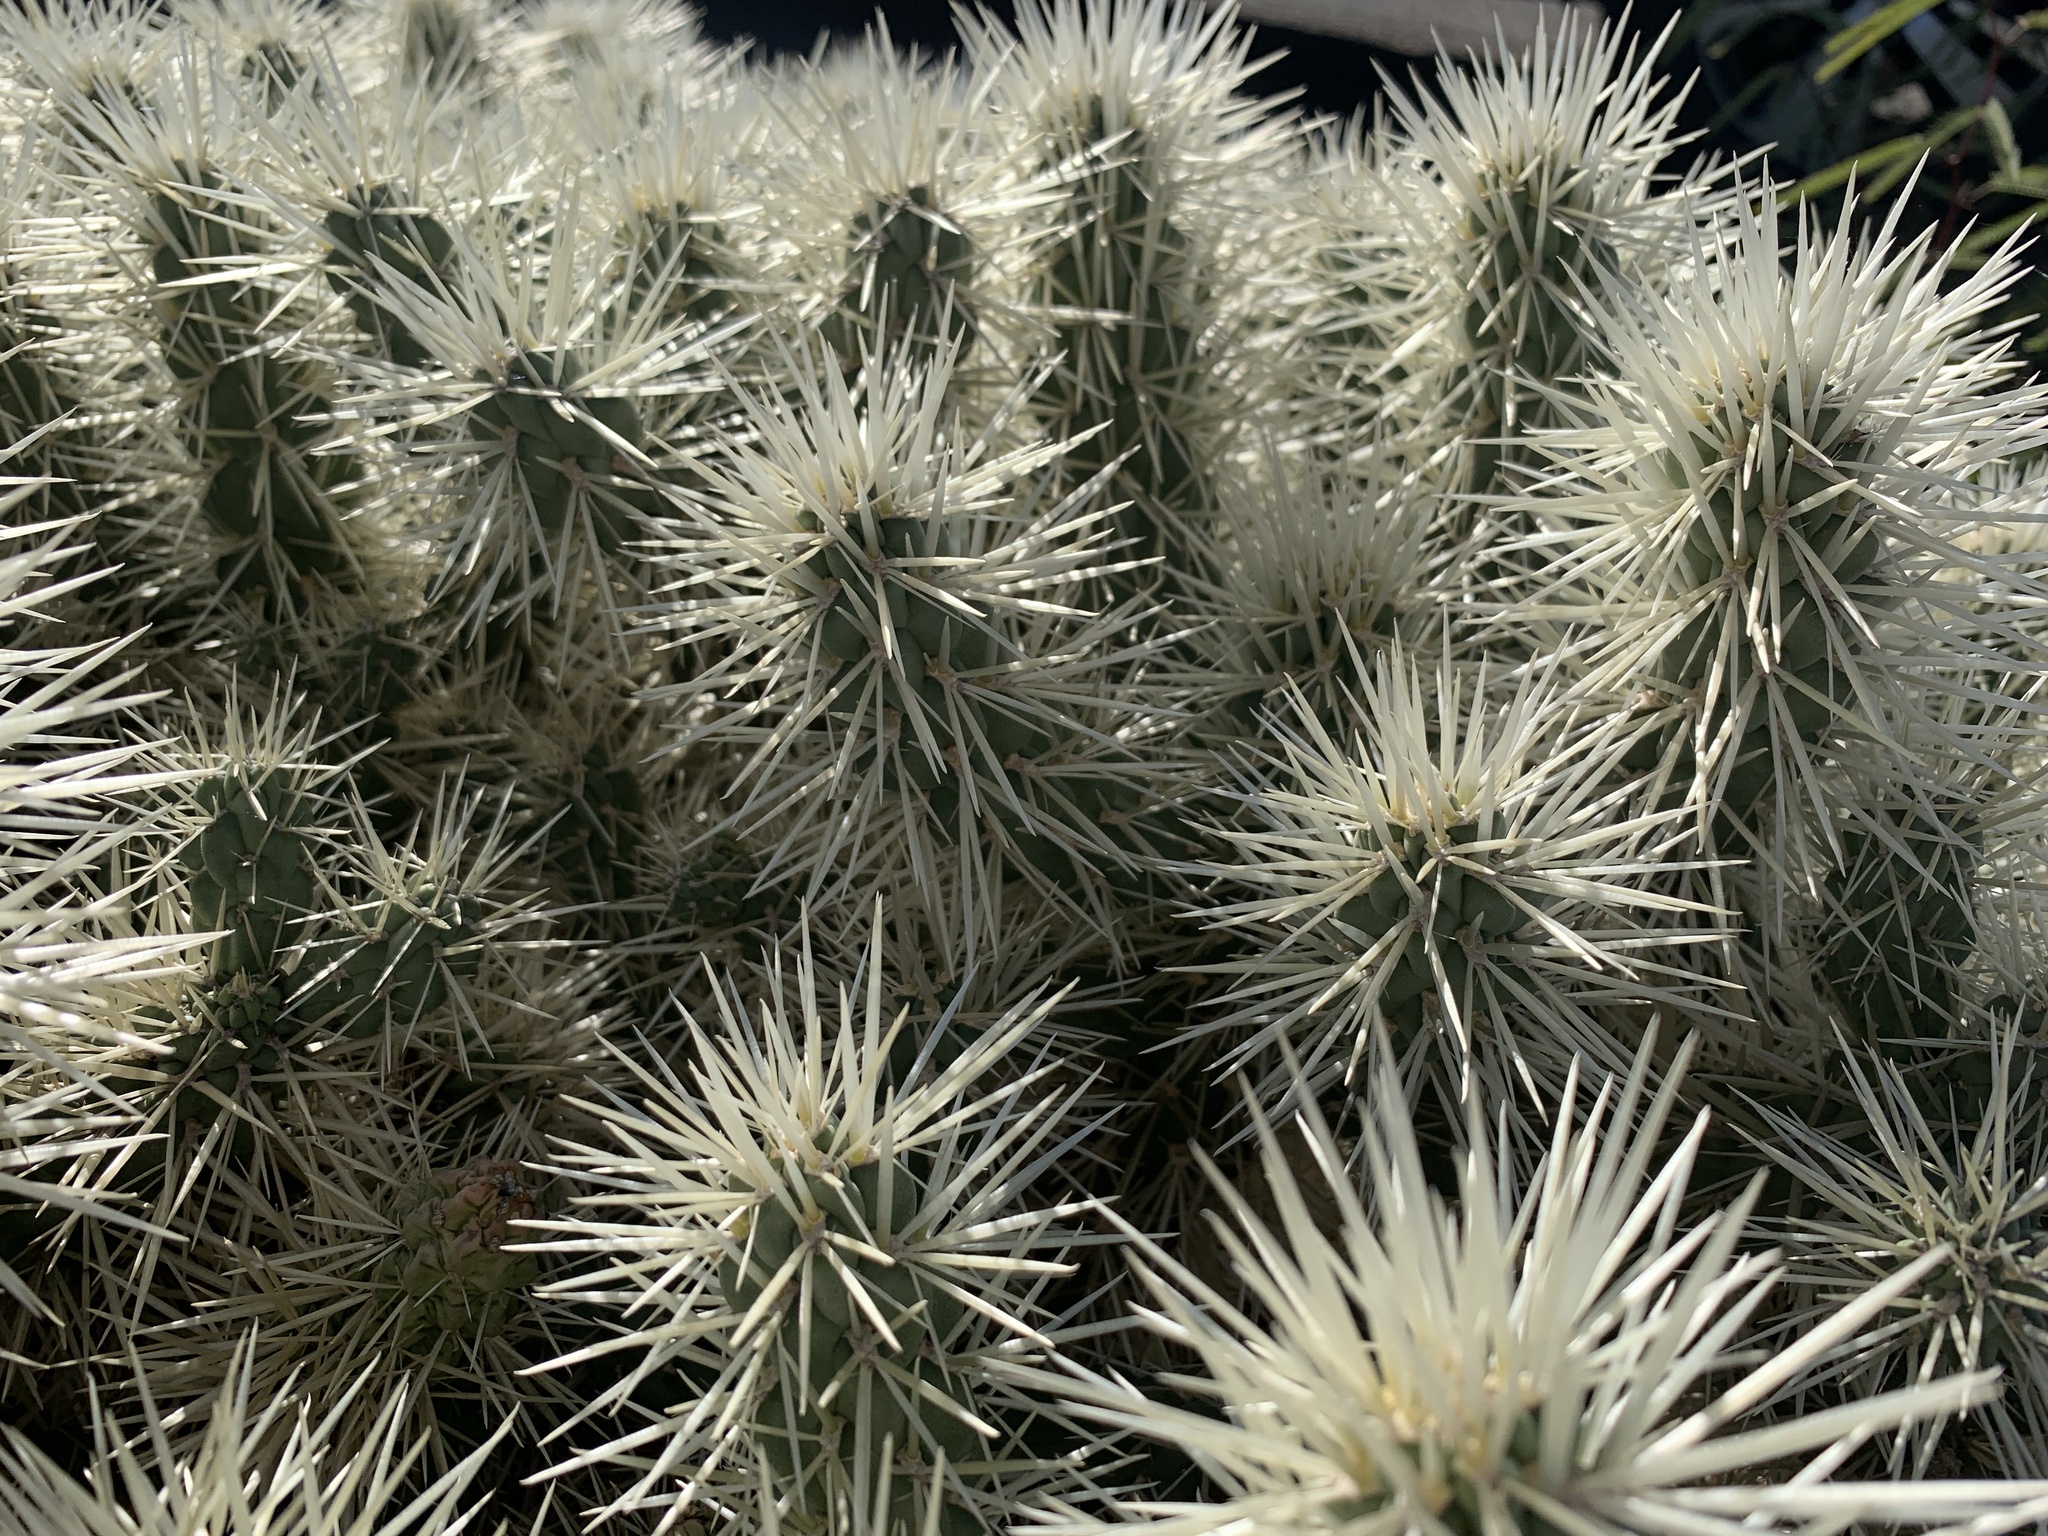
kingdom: Plantae
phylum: Tracheophyta
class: Magnoliopsida
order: Caryophyllales
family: Cactaceae
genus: Cylindropuntia
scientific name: Cylindropuntia imbricata
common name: Candelabrum cactus
